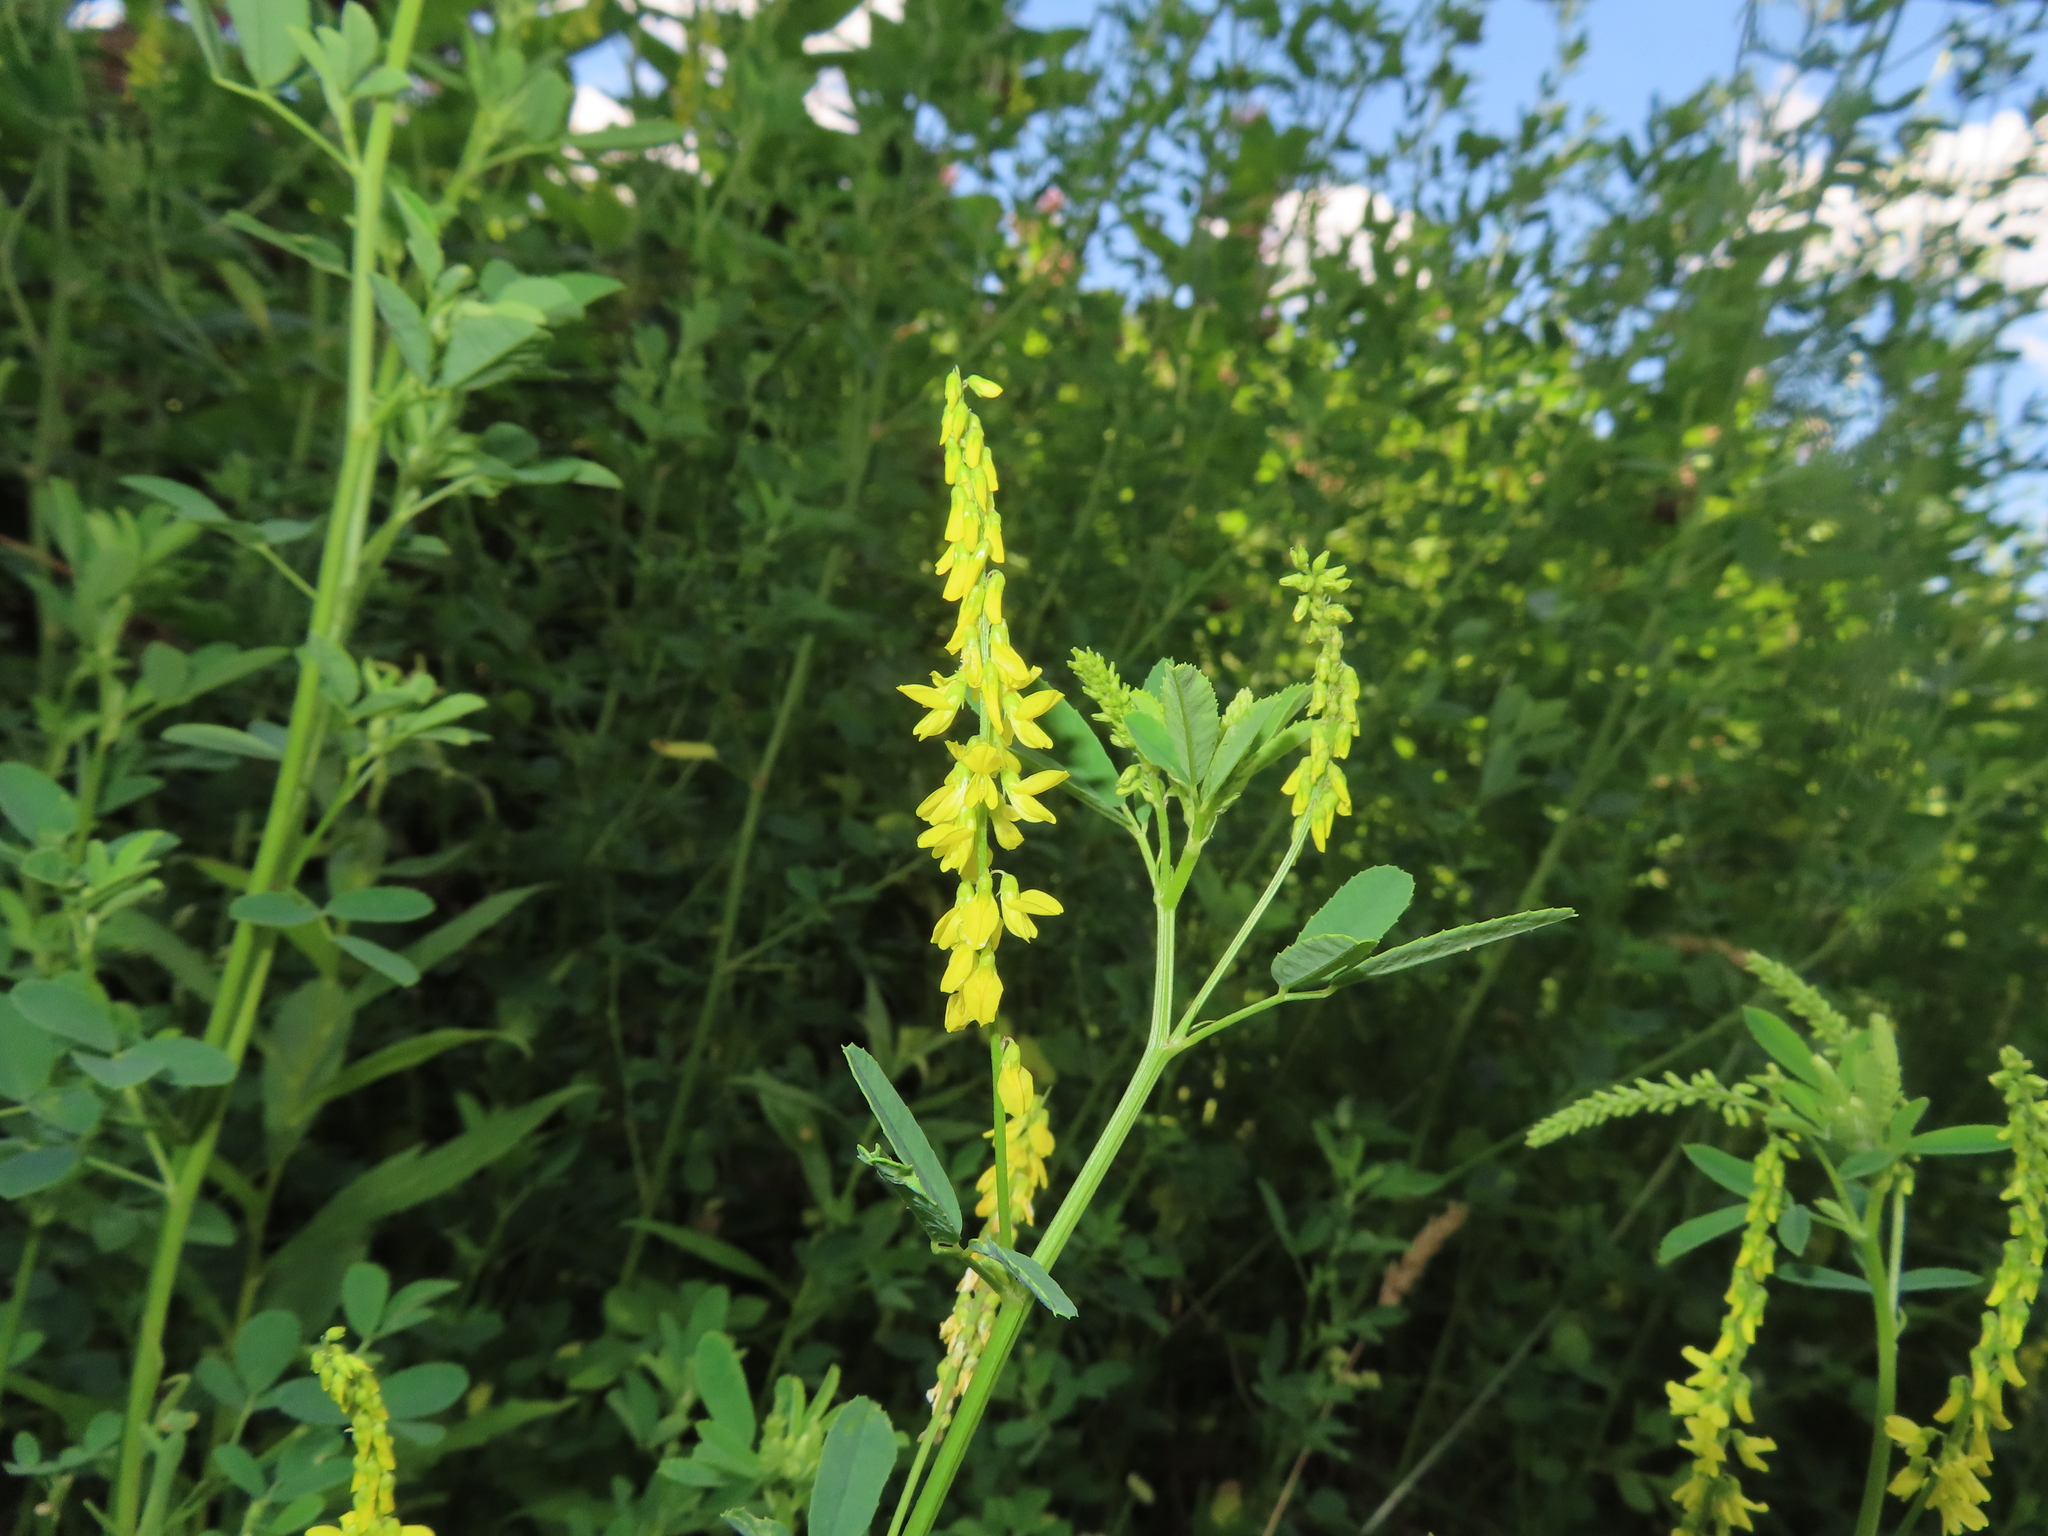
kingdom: Plantae
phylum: Tracheophyta
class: Magnoliopsida
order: Fabales
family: Fabaceae
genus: Melilotus
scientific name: Melilotus officinalis
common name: Sweetclover
